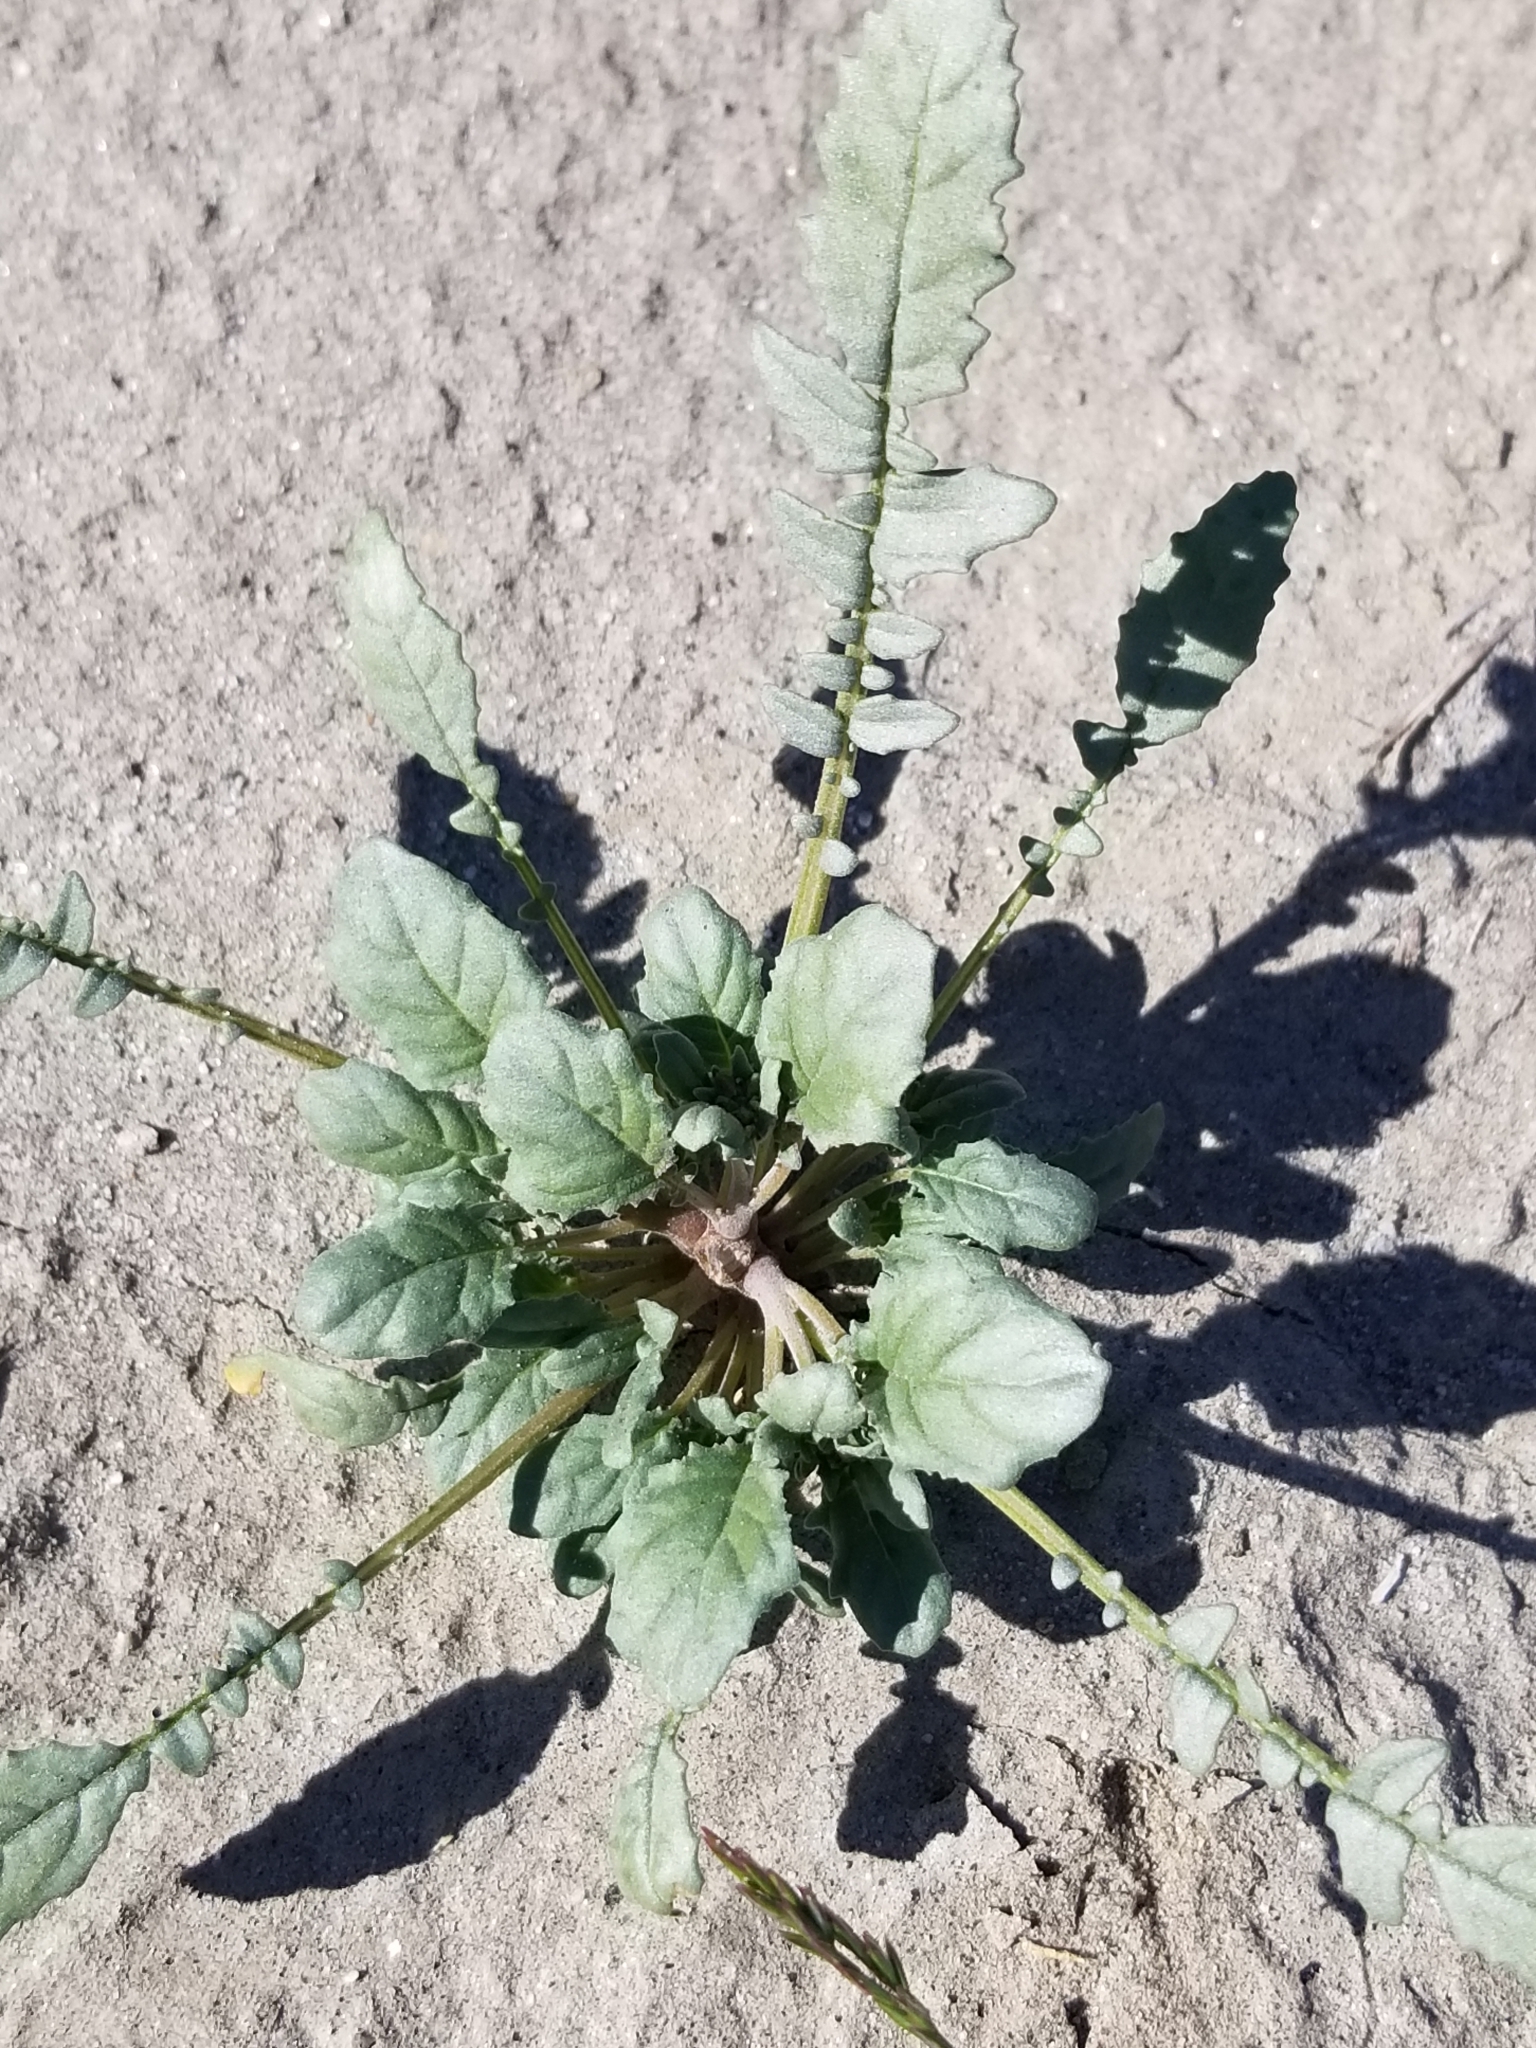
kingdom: Plantae
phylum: Tracheophyta
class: Magnoliopsida
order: Myrtales
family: Onagraceae
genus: Chylismia
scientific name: Chylismia claviformis
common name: Browneyes
